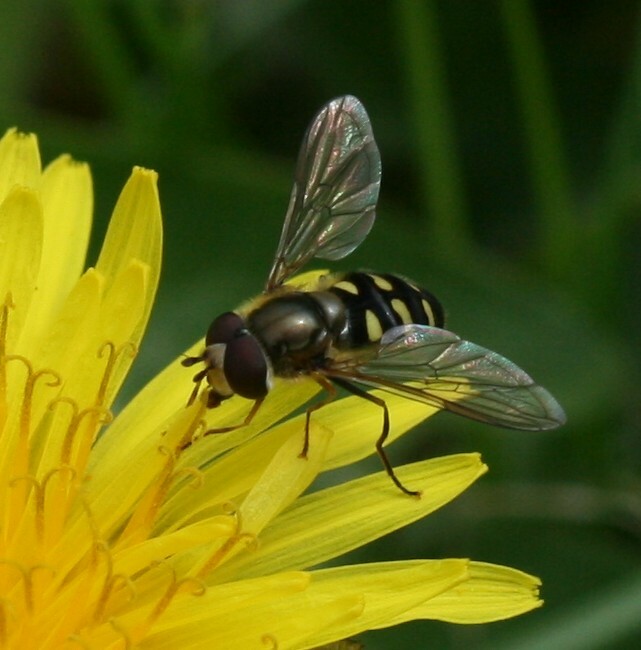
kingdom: Animalia
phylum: Arthropoda
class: Insecta
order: Diptera
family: Syrphidae
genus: Eupeodes
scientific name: Eupeodes
